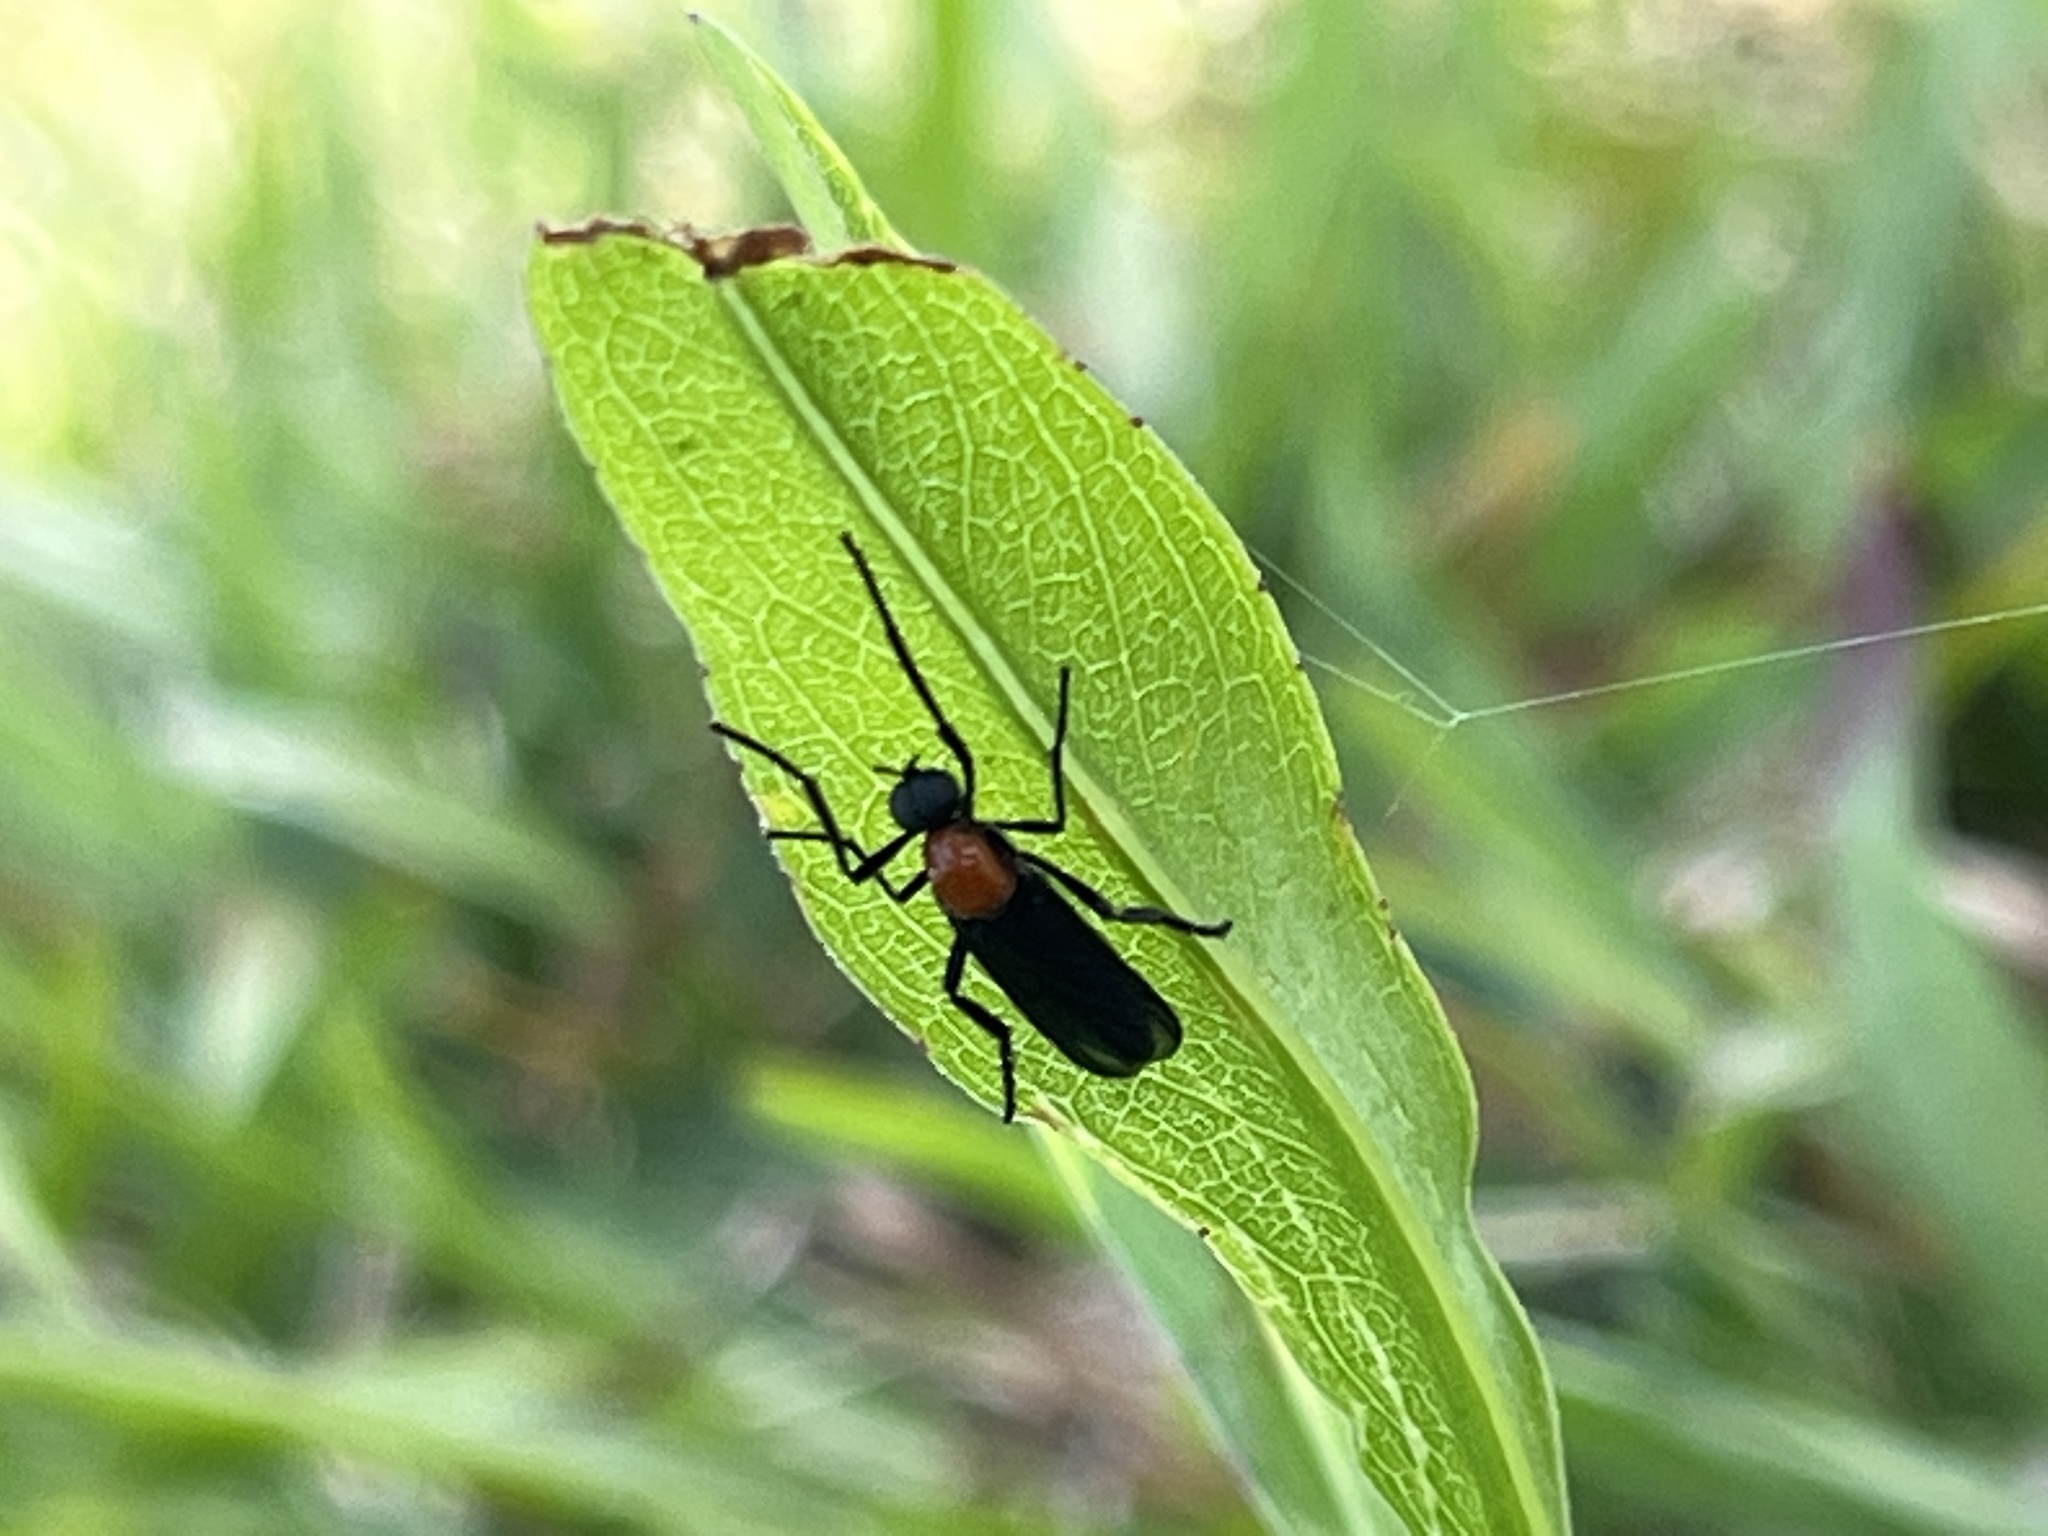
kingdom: Animalia
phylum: Arthropoda
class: Insecta
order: Diptera
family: Bibionidae
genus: Plecia
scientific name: Plecia nearctica
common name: March fly
